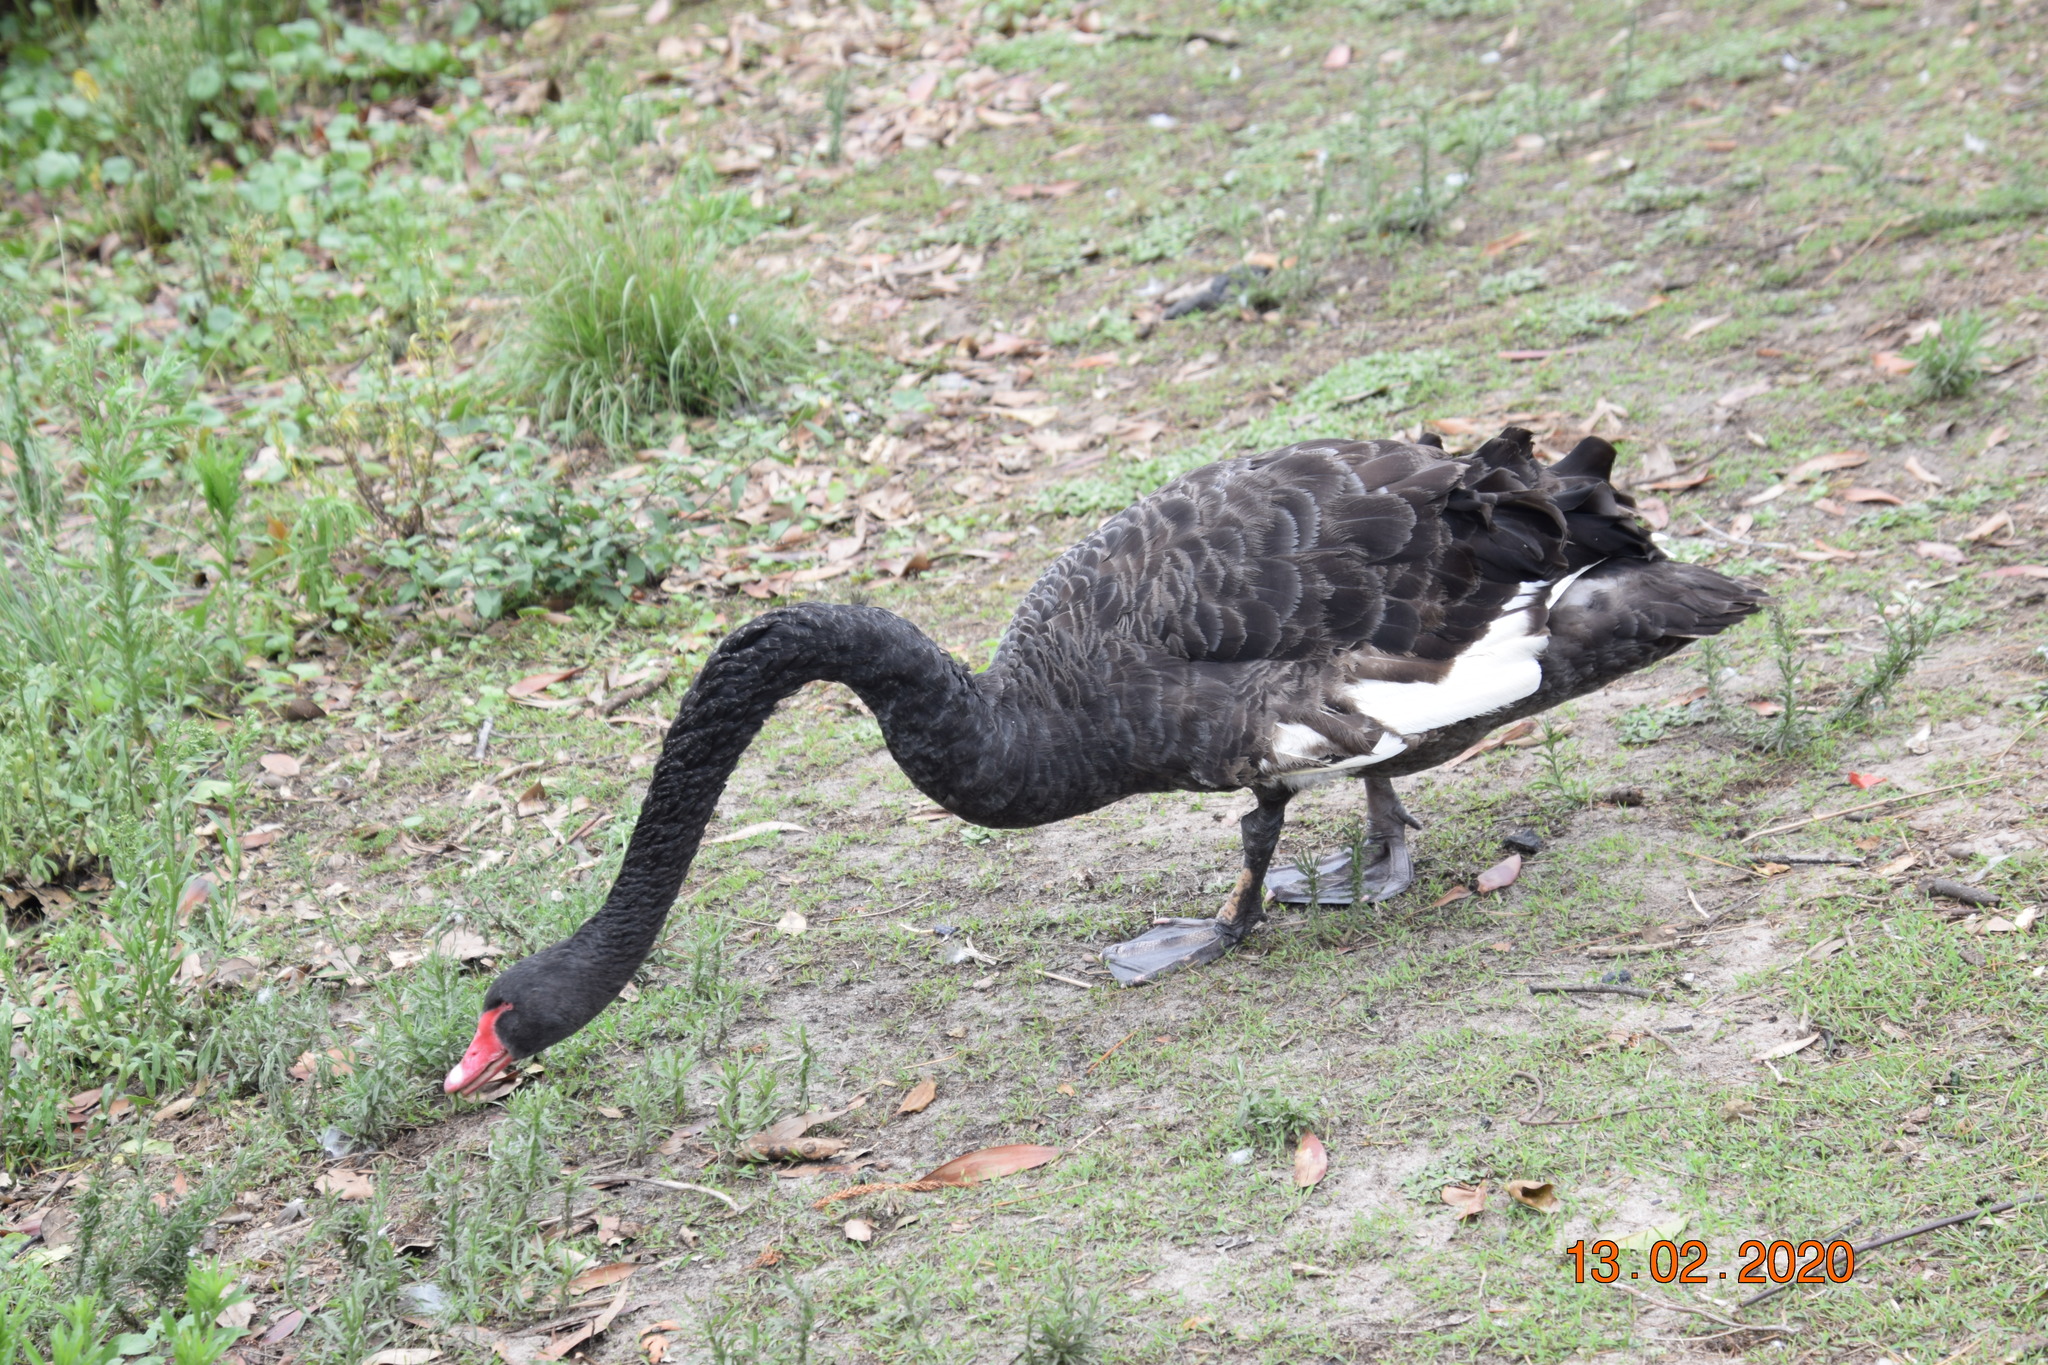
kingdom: Animalia
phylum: Chordata
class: Aves
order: Anseriformes
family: Anatidae
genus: Cygnus
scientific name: Cygnus atratus
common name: Black swan
